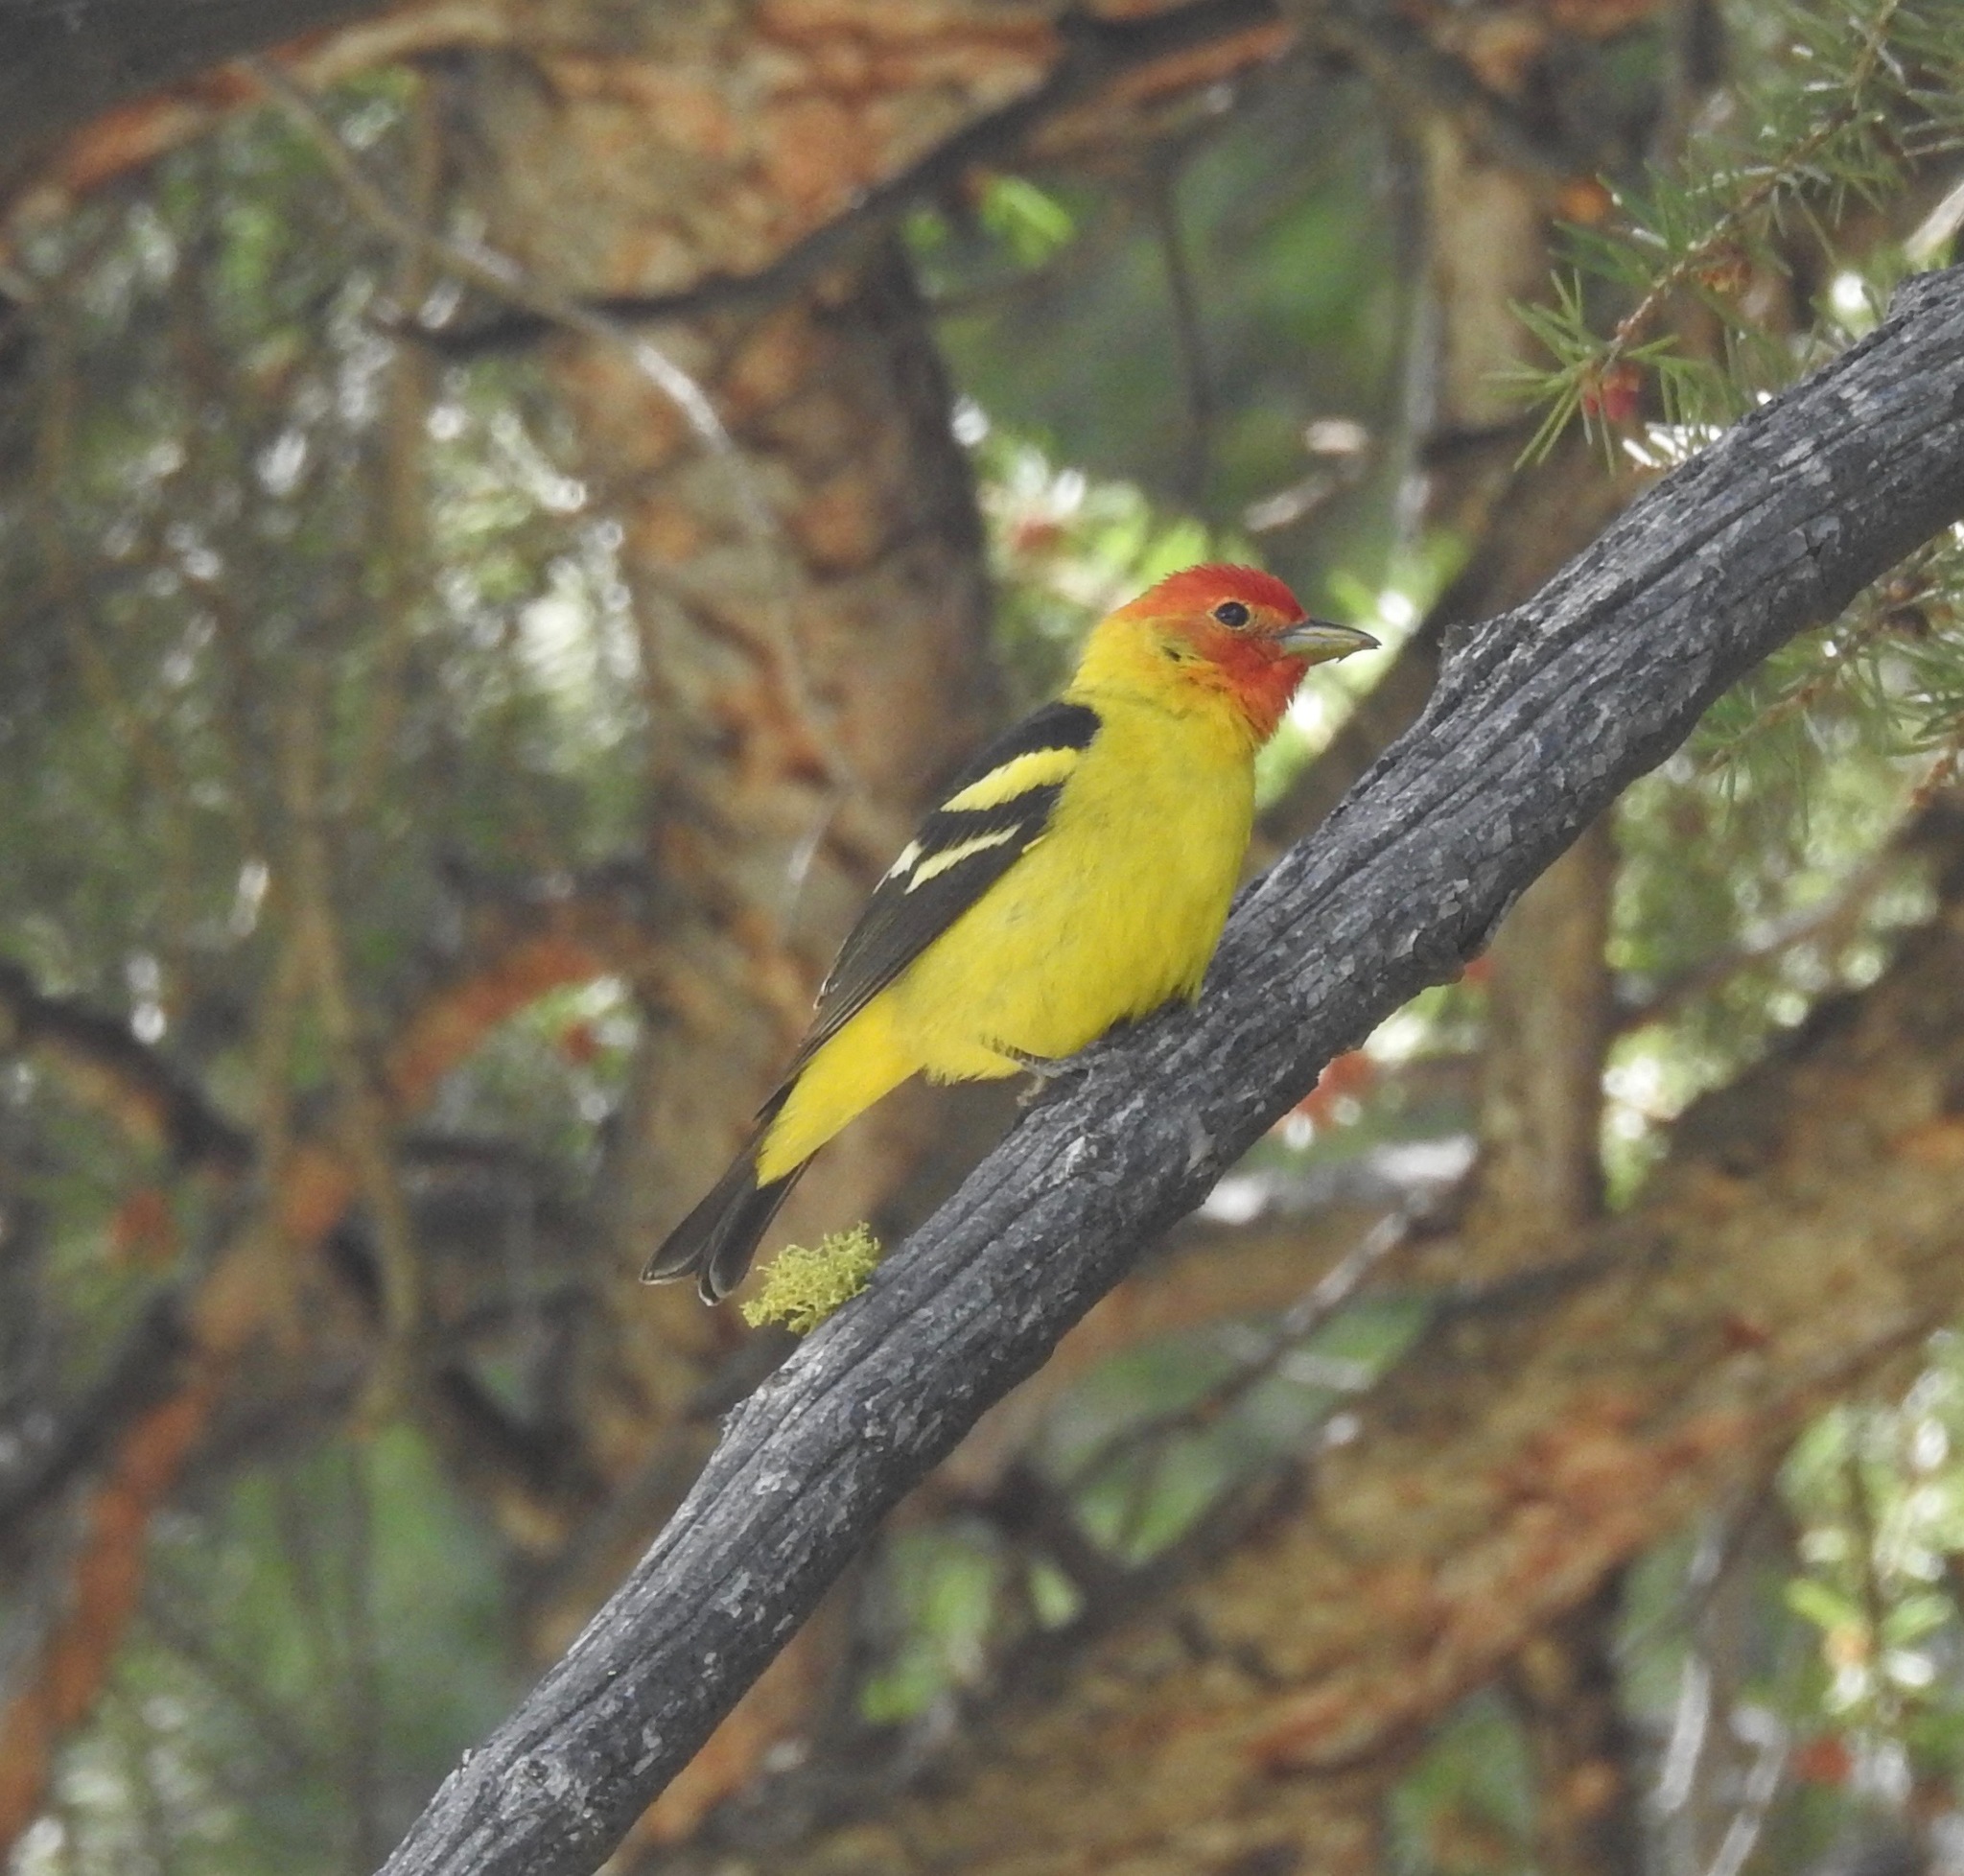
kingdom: Animalia
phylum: Chordata
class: Aves
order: Passeriformes
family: Cardinalidae
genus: Piranga
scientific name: Piranga ludoviciana
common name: Western tanager
